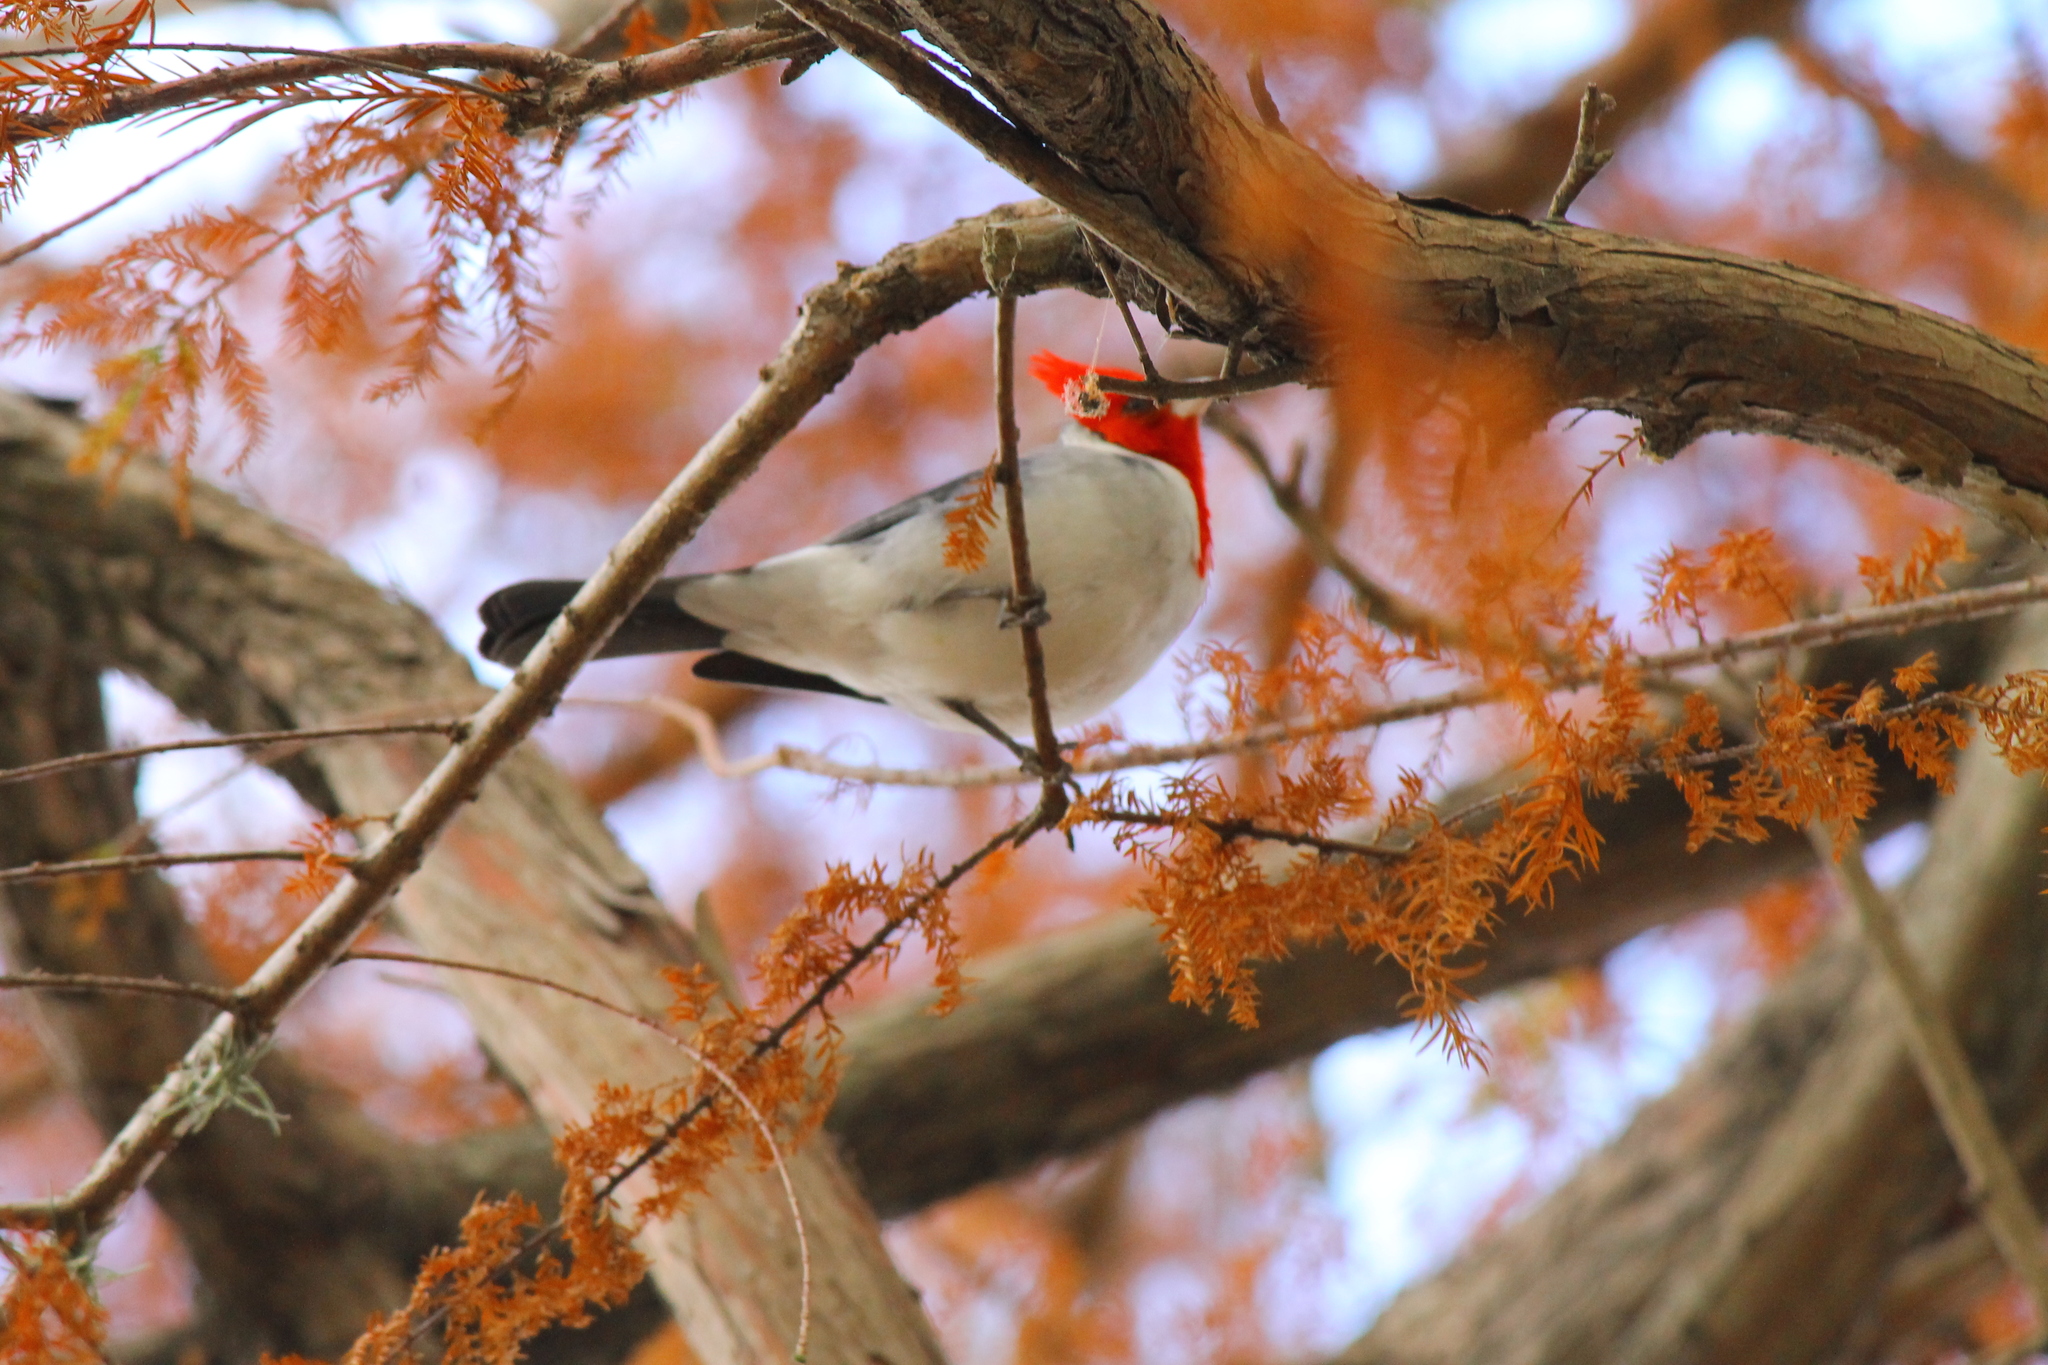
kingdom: Animalia
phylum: Chordata
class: Aves
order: Passeriformes
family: Thraupidae
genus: Paroaria
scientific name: Paroaria coronata
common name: Red-crested cardinal
